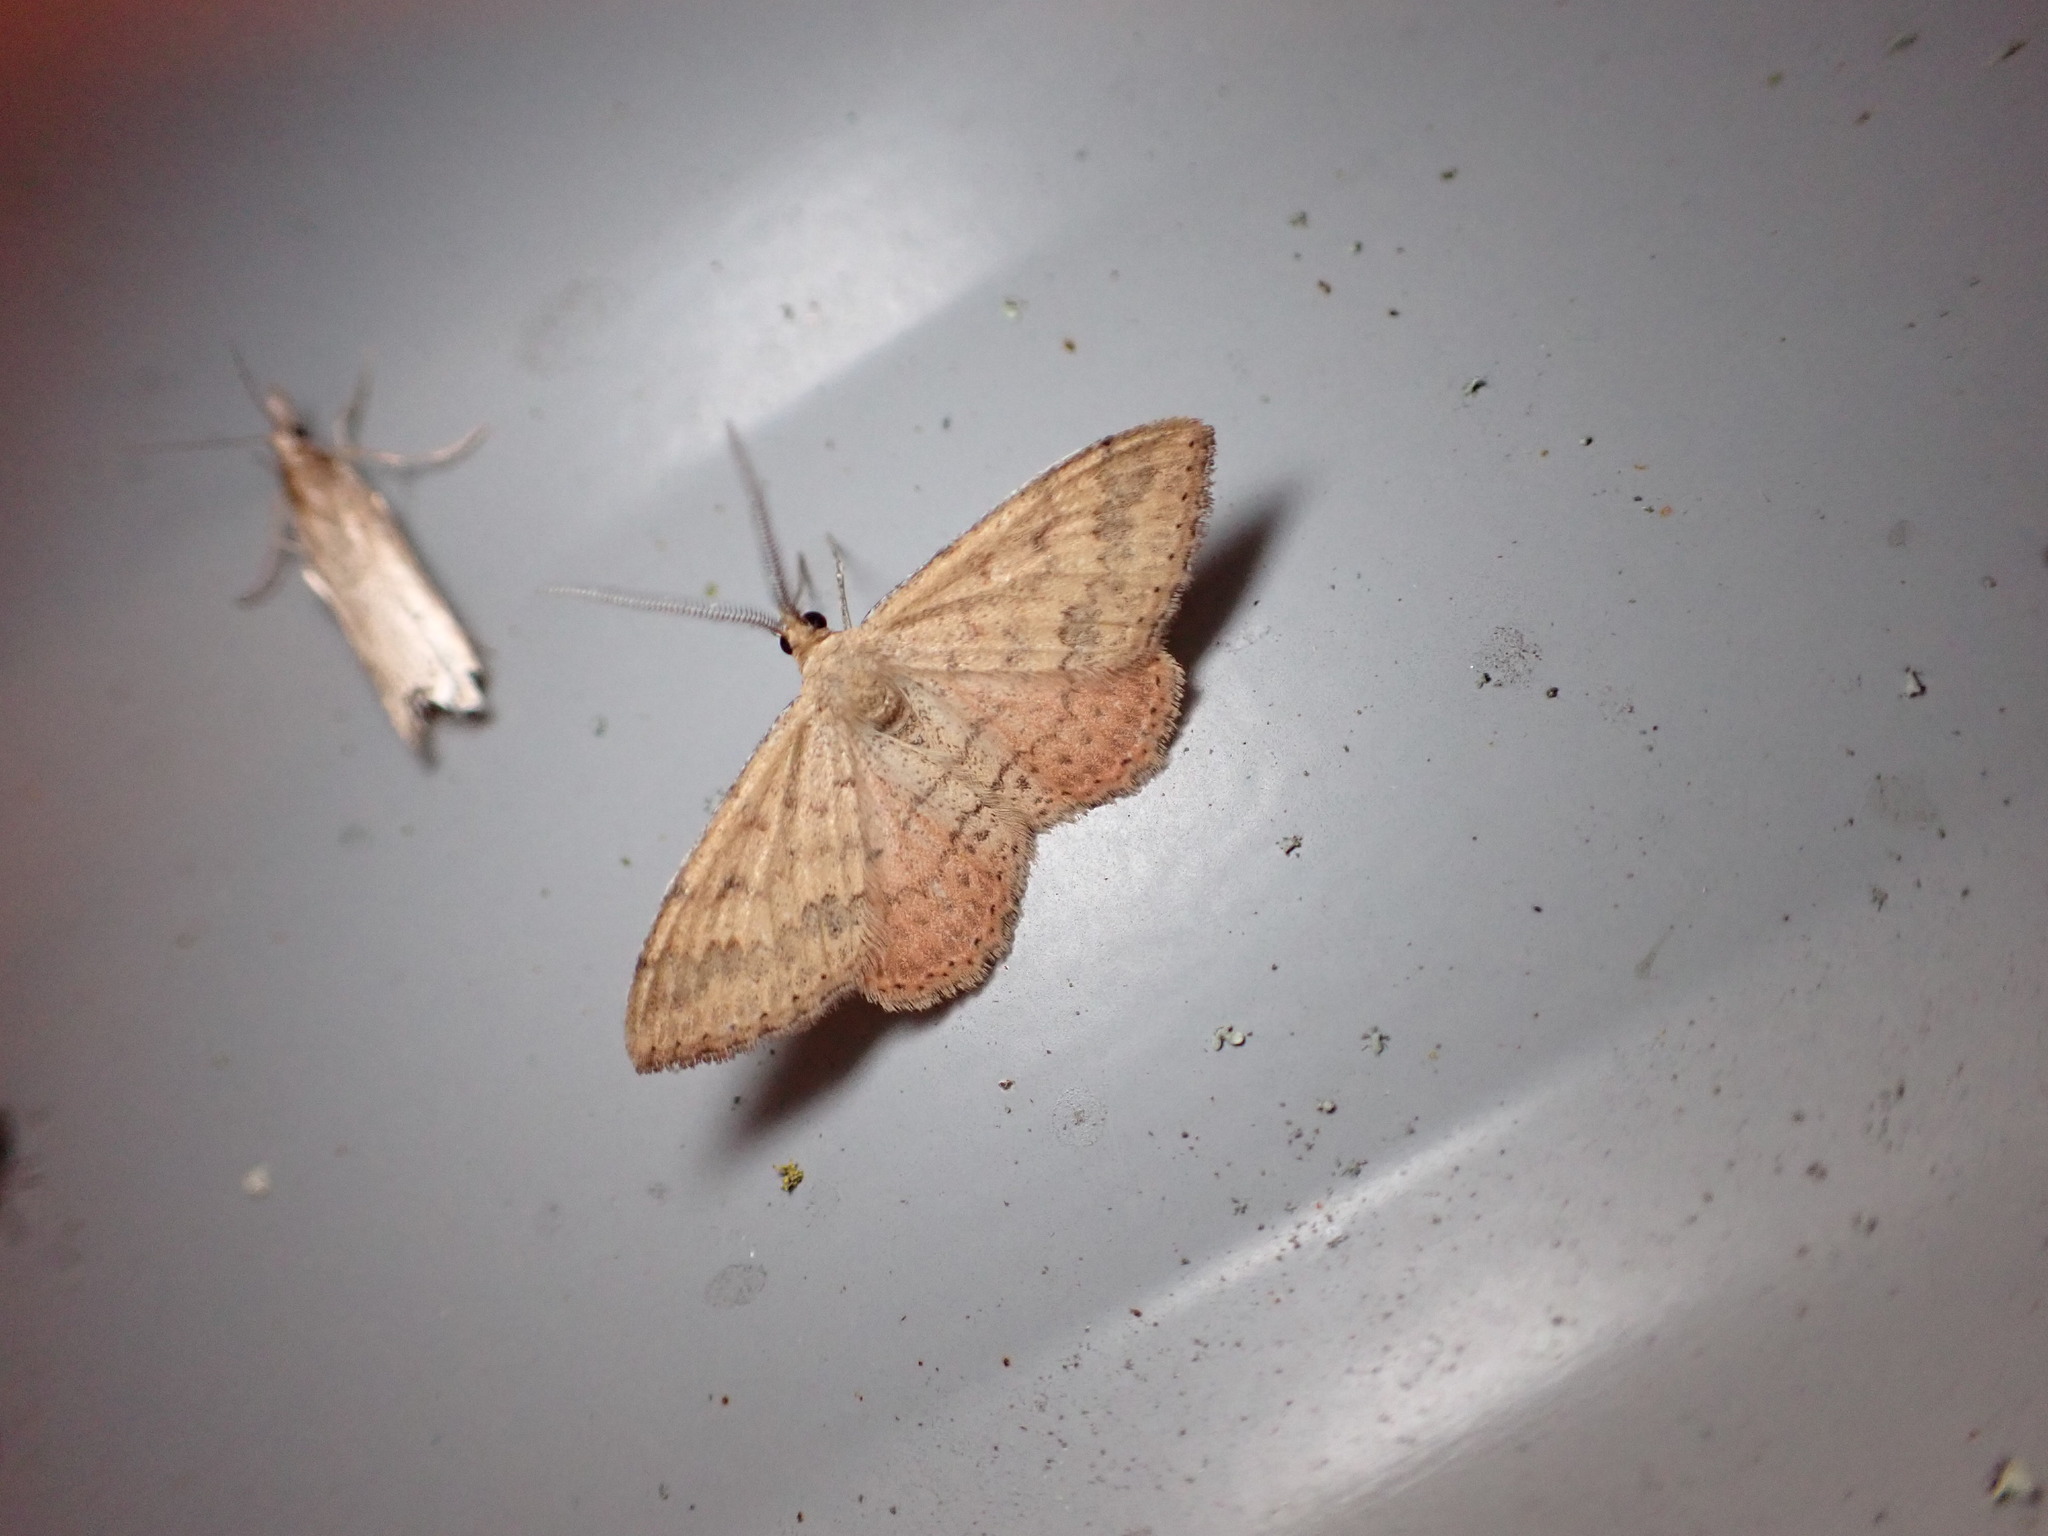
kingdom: Animalia
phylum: Arthropoda
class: Insecta
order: Lepidoptera
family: Geometridae
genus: Scopula
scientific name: Scopula rubraria
